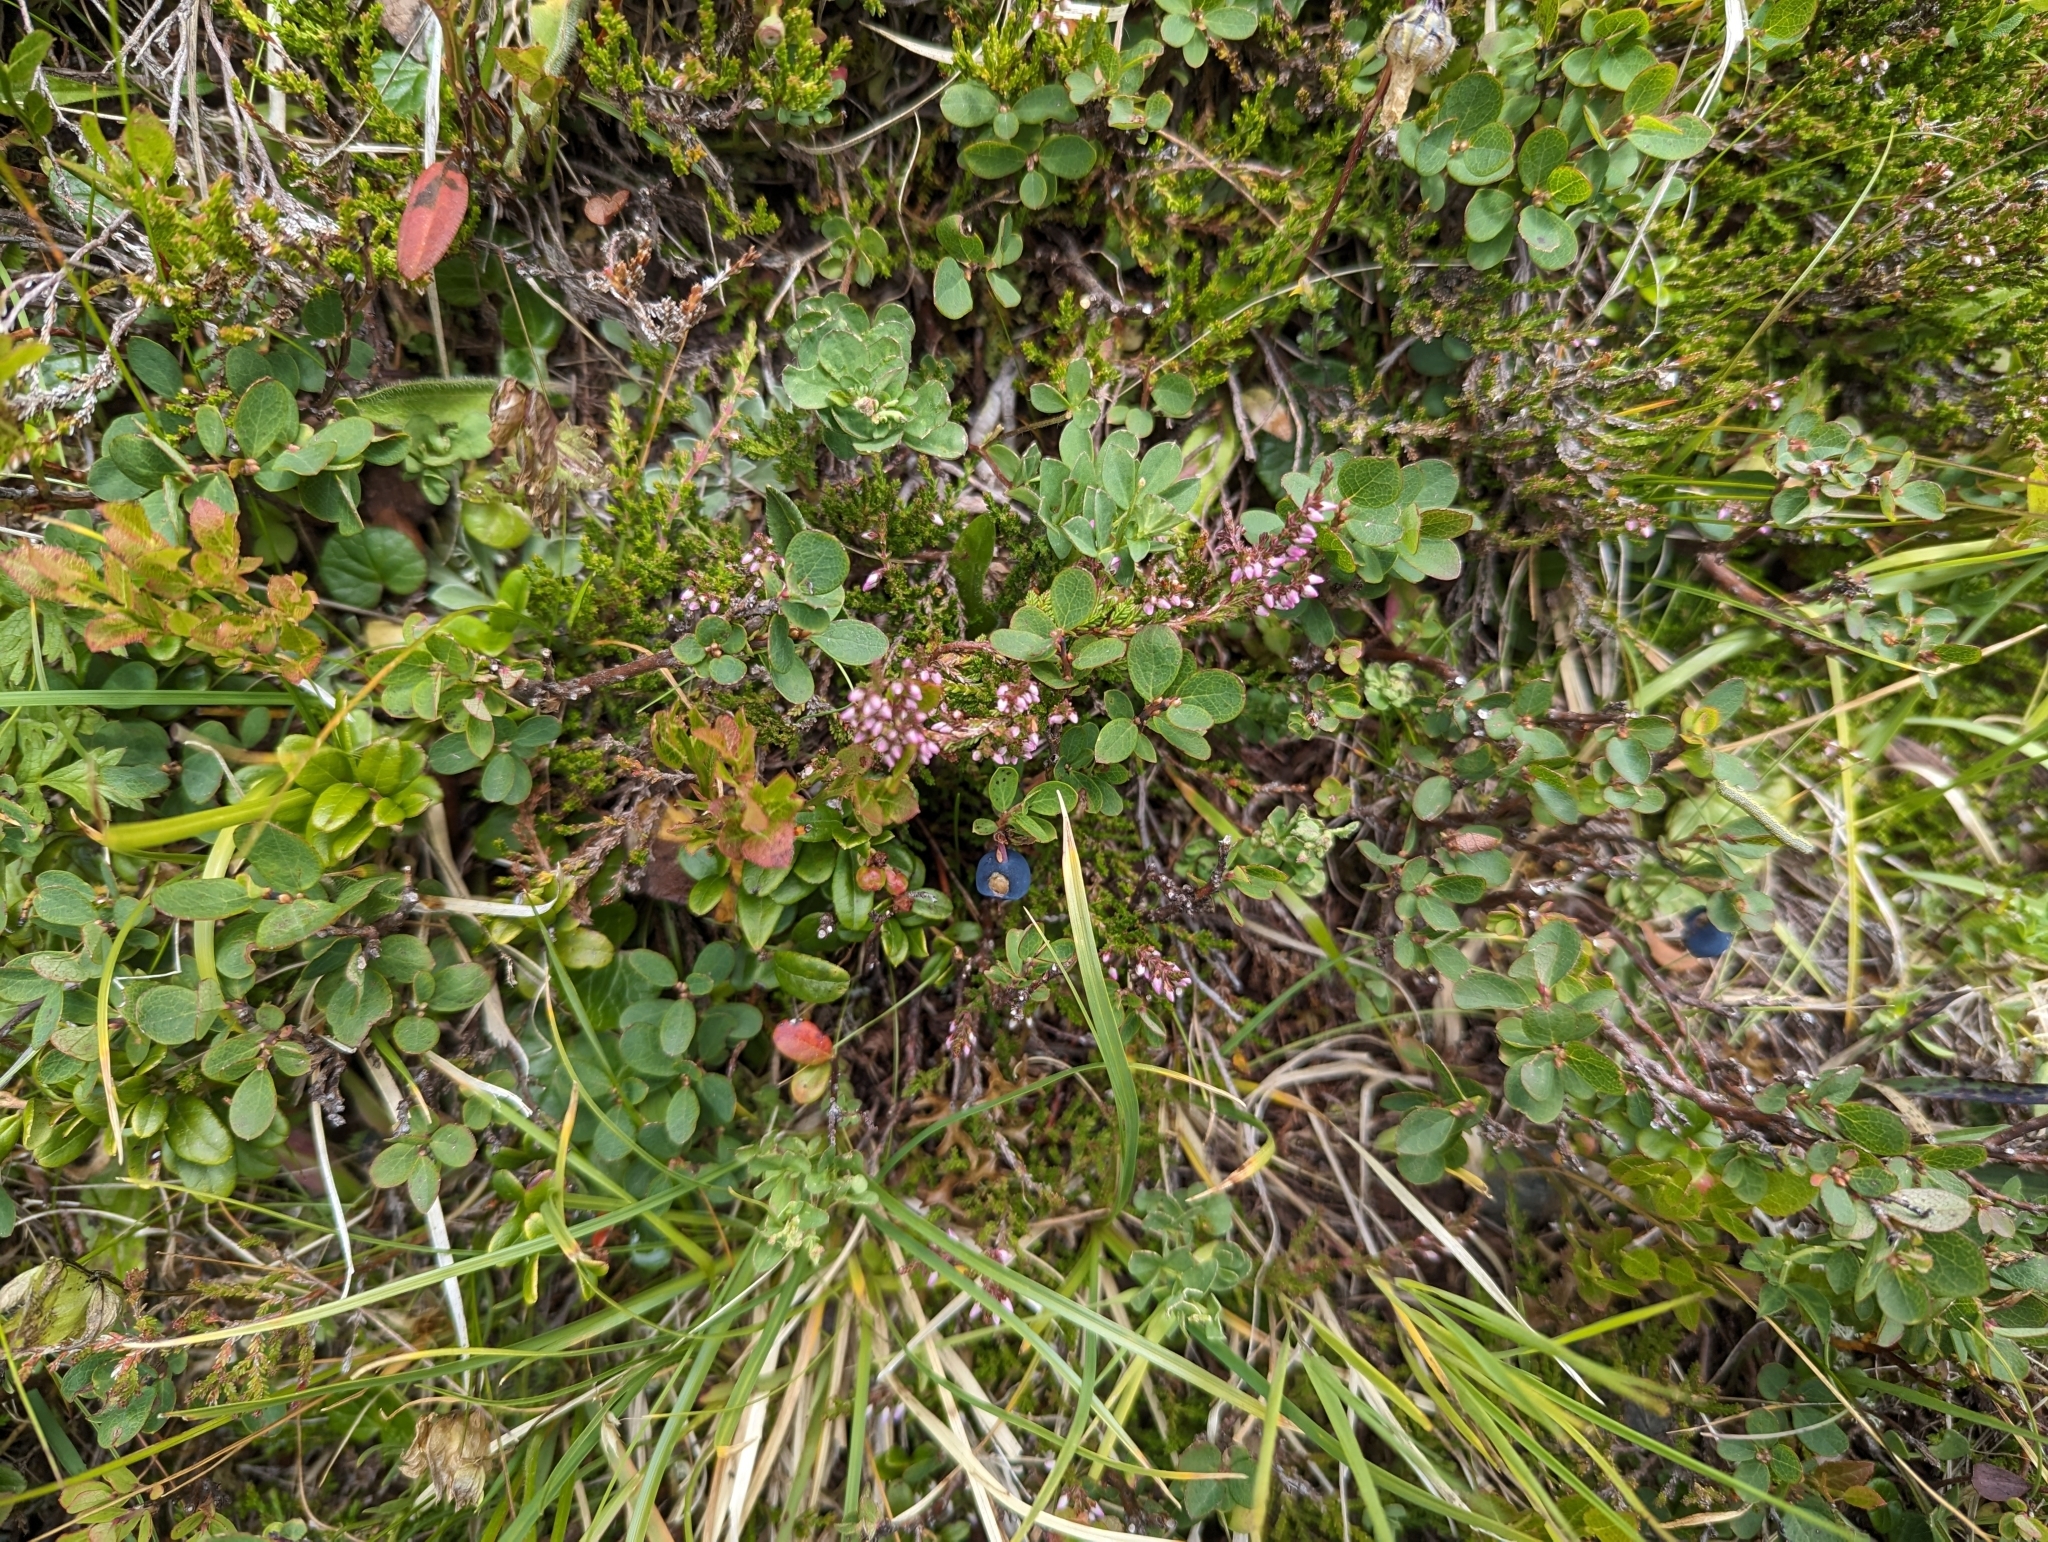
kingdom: Plantae
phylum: Tracheophyta
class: Magnoliopsida
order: Ericales
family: Ericaceae
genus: Vaccinium
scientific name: Vaccinium uliginosum
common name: Bog bilberry
